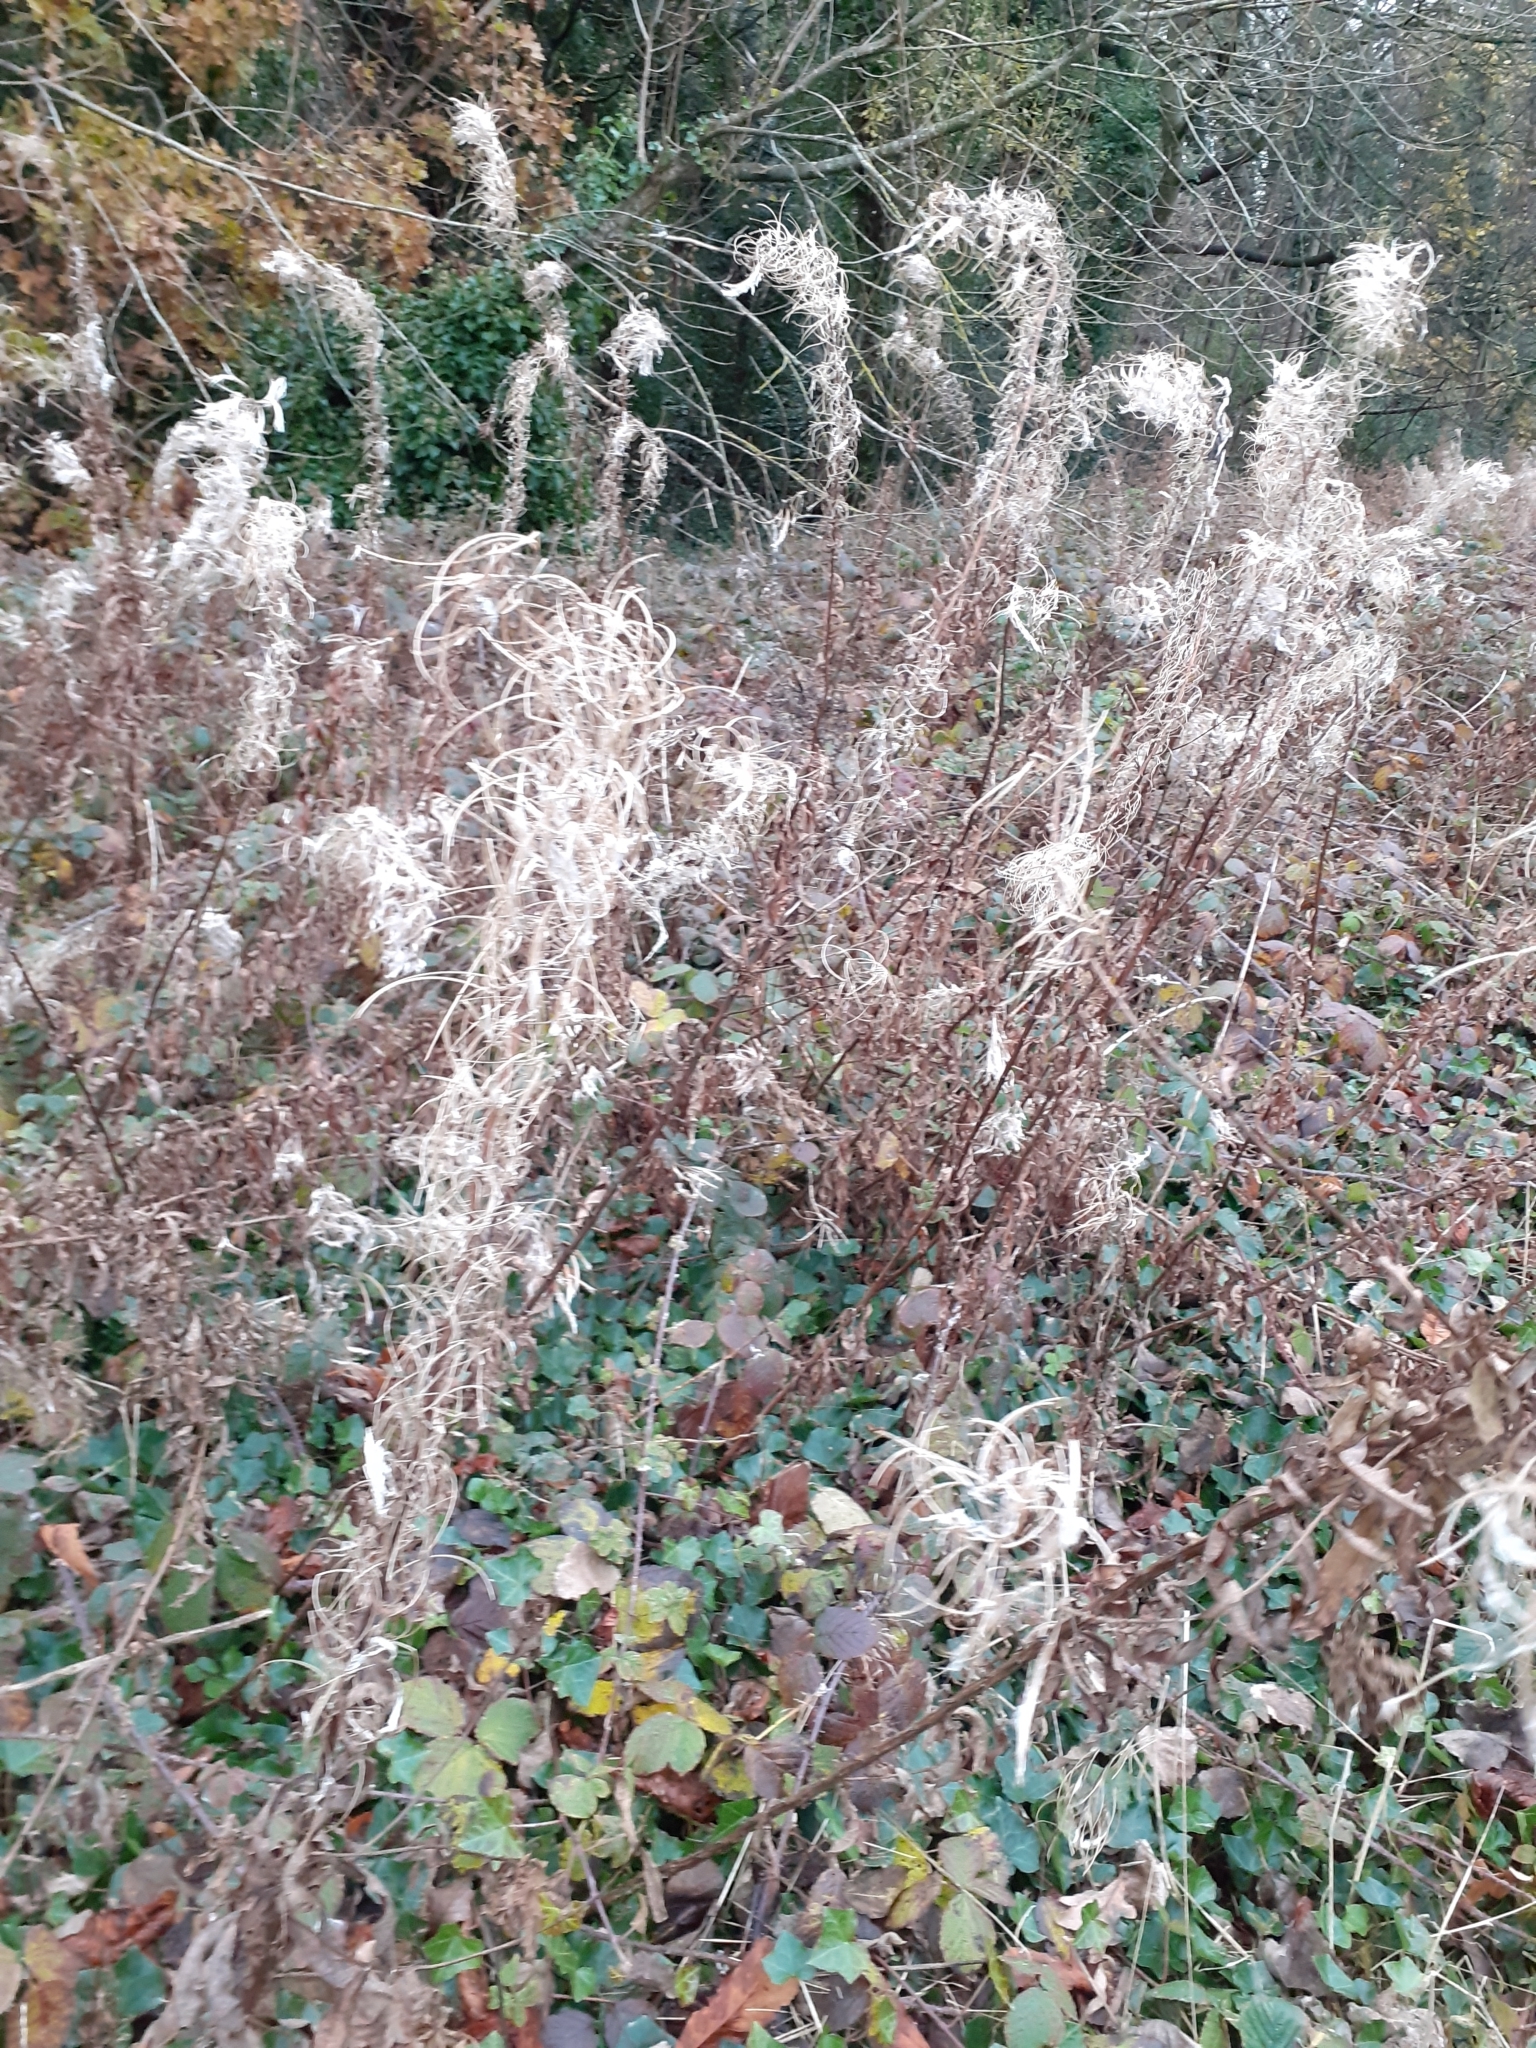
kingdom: Plantae
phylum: Tracheophyta
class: Magnoliopsida
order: Myrtales
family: Onagraceae
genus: Chamaenerion
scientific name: Chamaenerion angustifolium
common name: Fireweed
